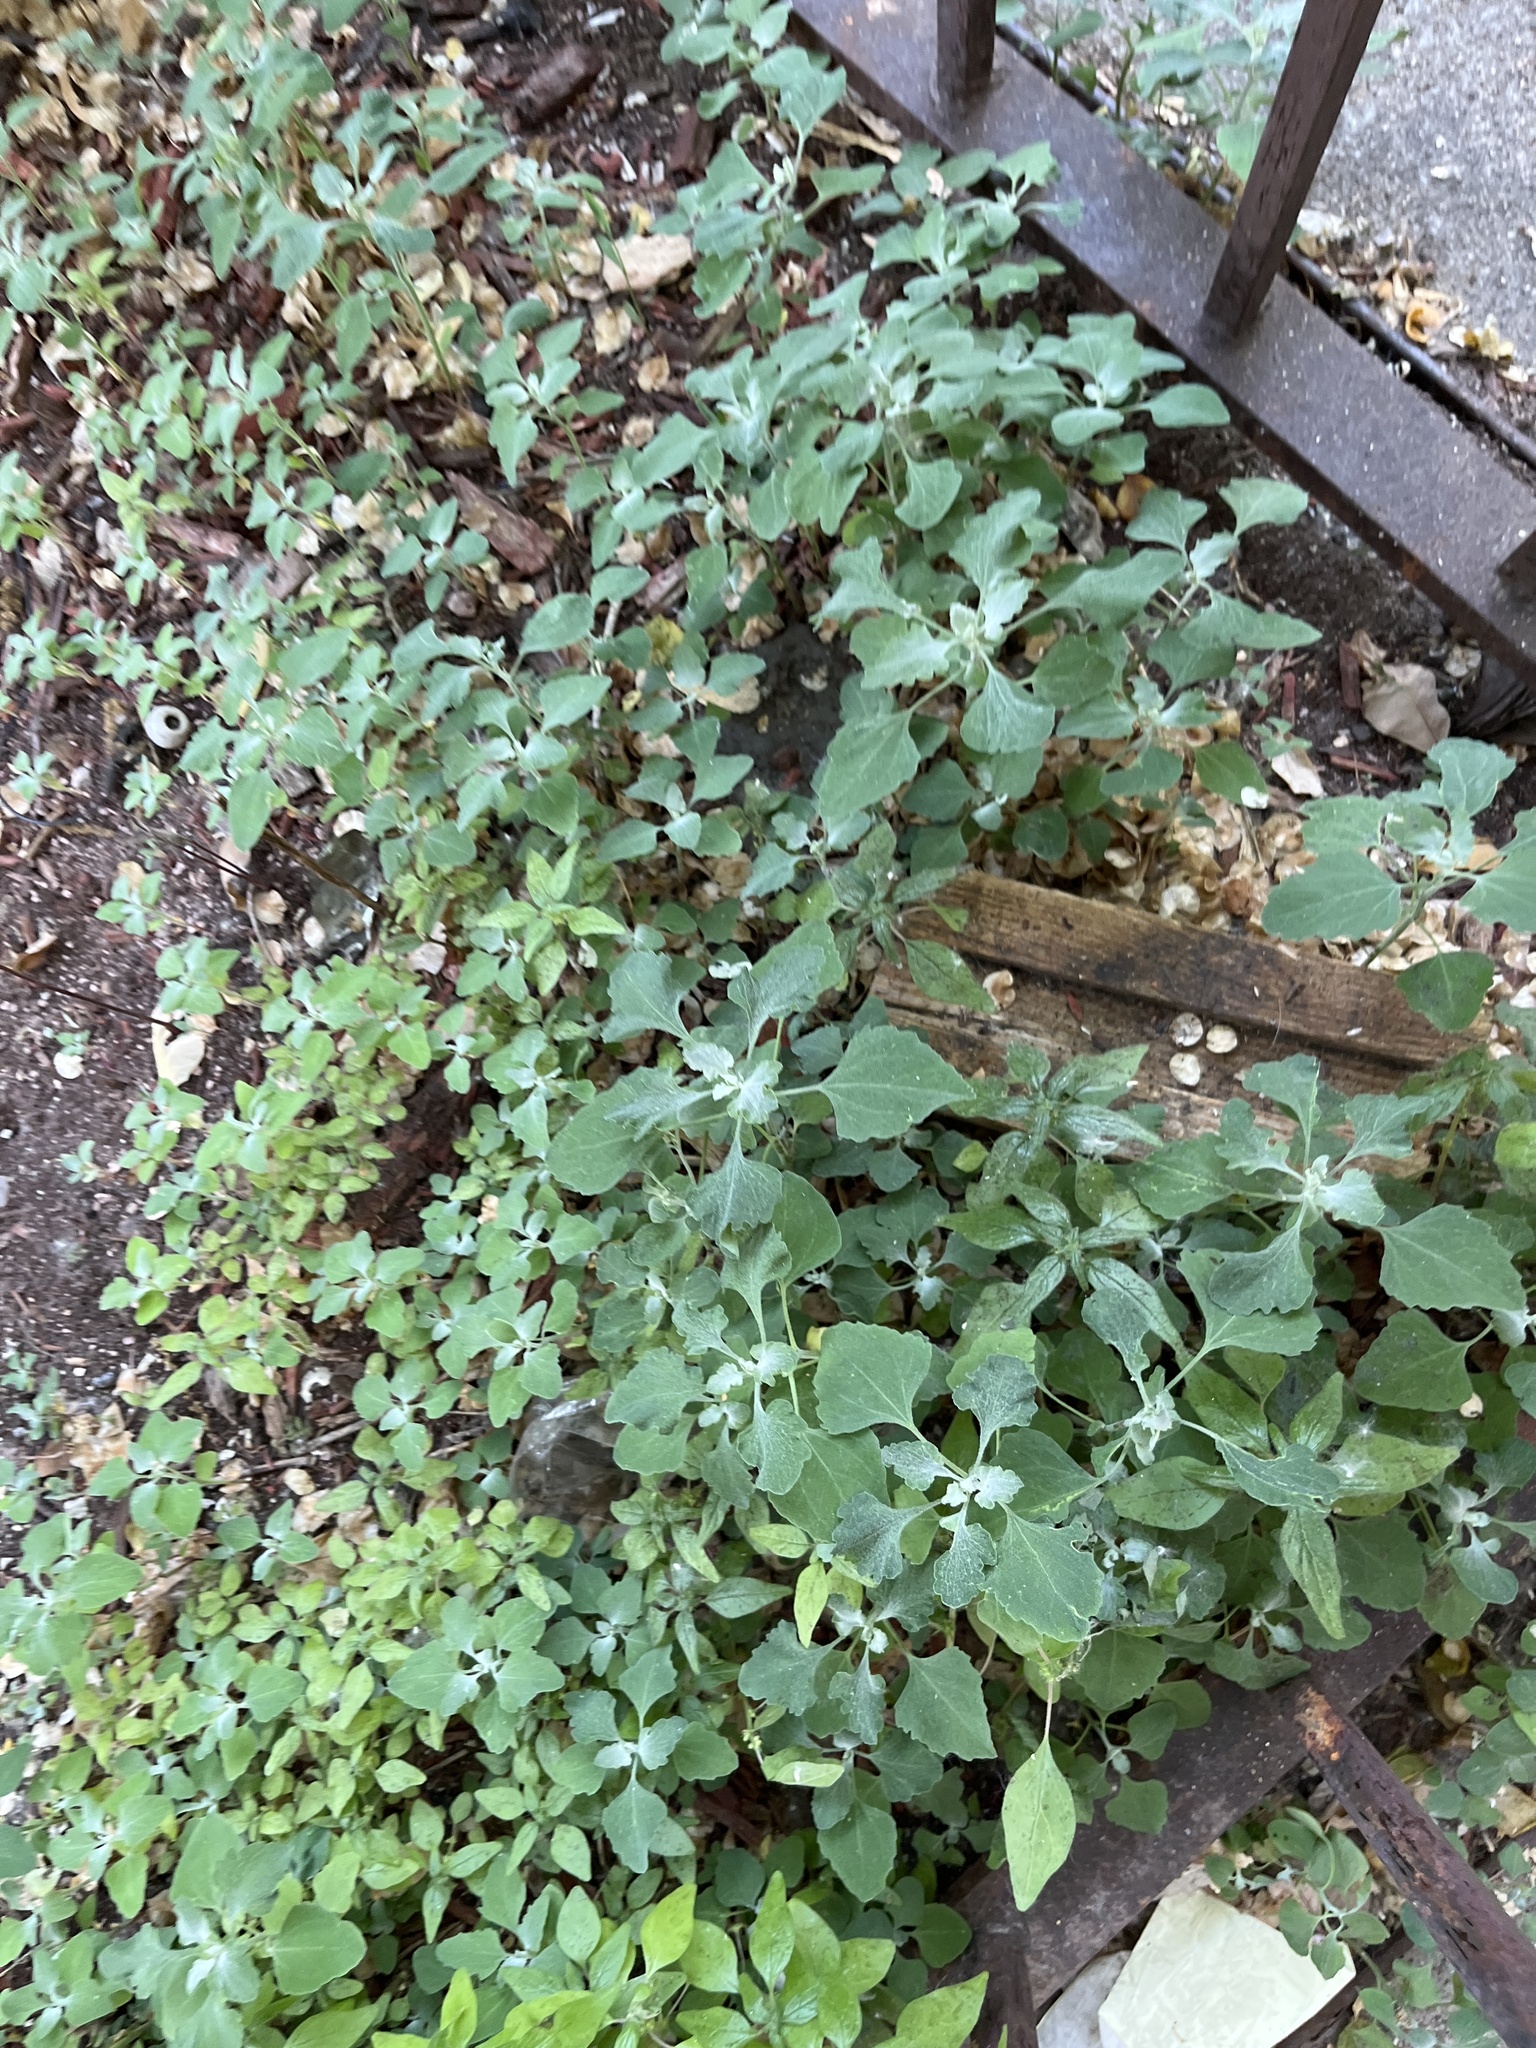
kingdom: Plantae
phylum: Tracheophyta
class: Magnoliopsida
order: Caryophyllales
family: Amaranthaceae
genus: Chenopodium
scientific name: Chenopodium album
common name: Fat-hen
